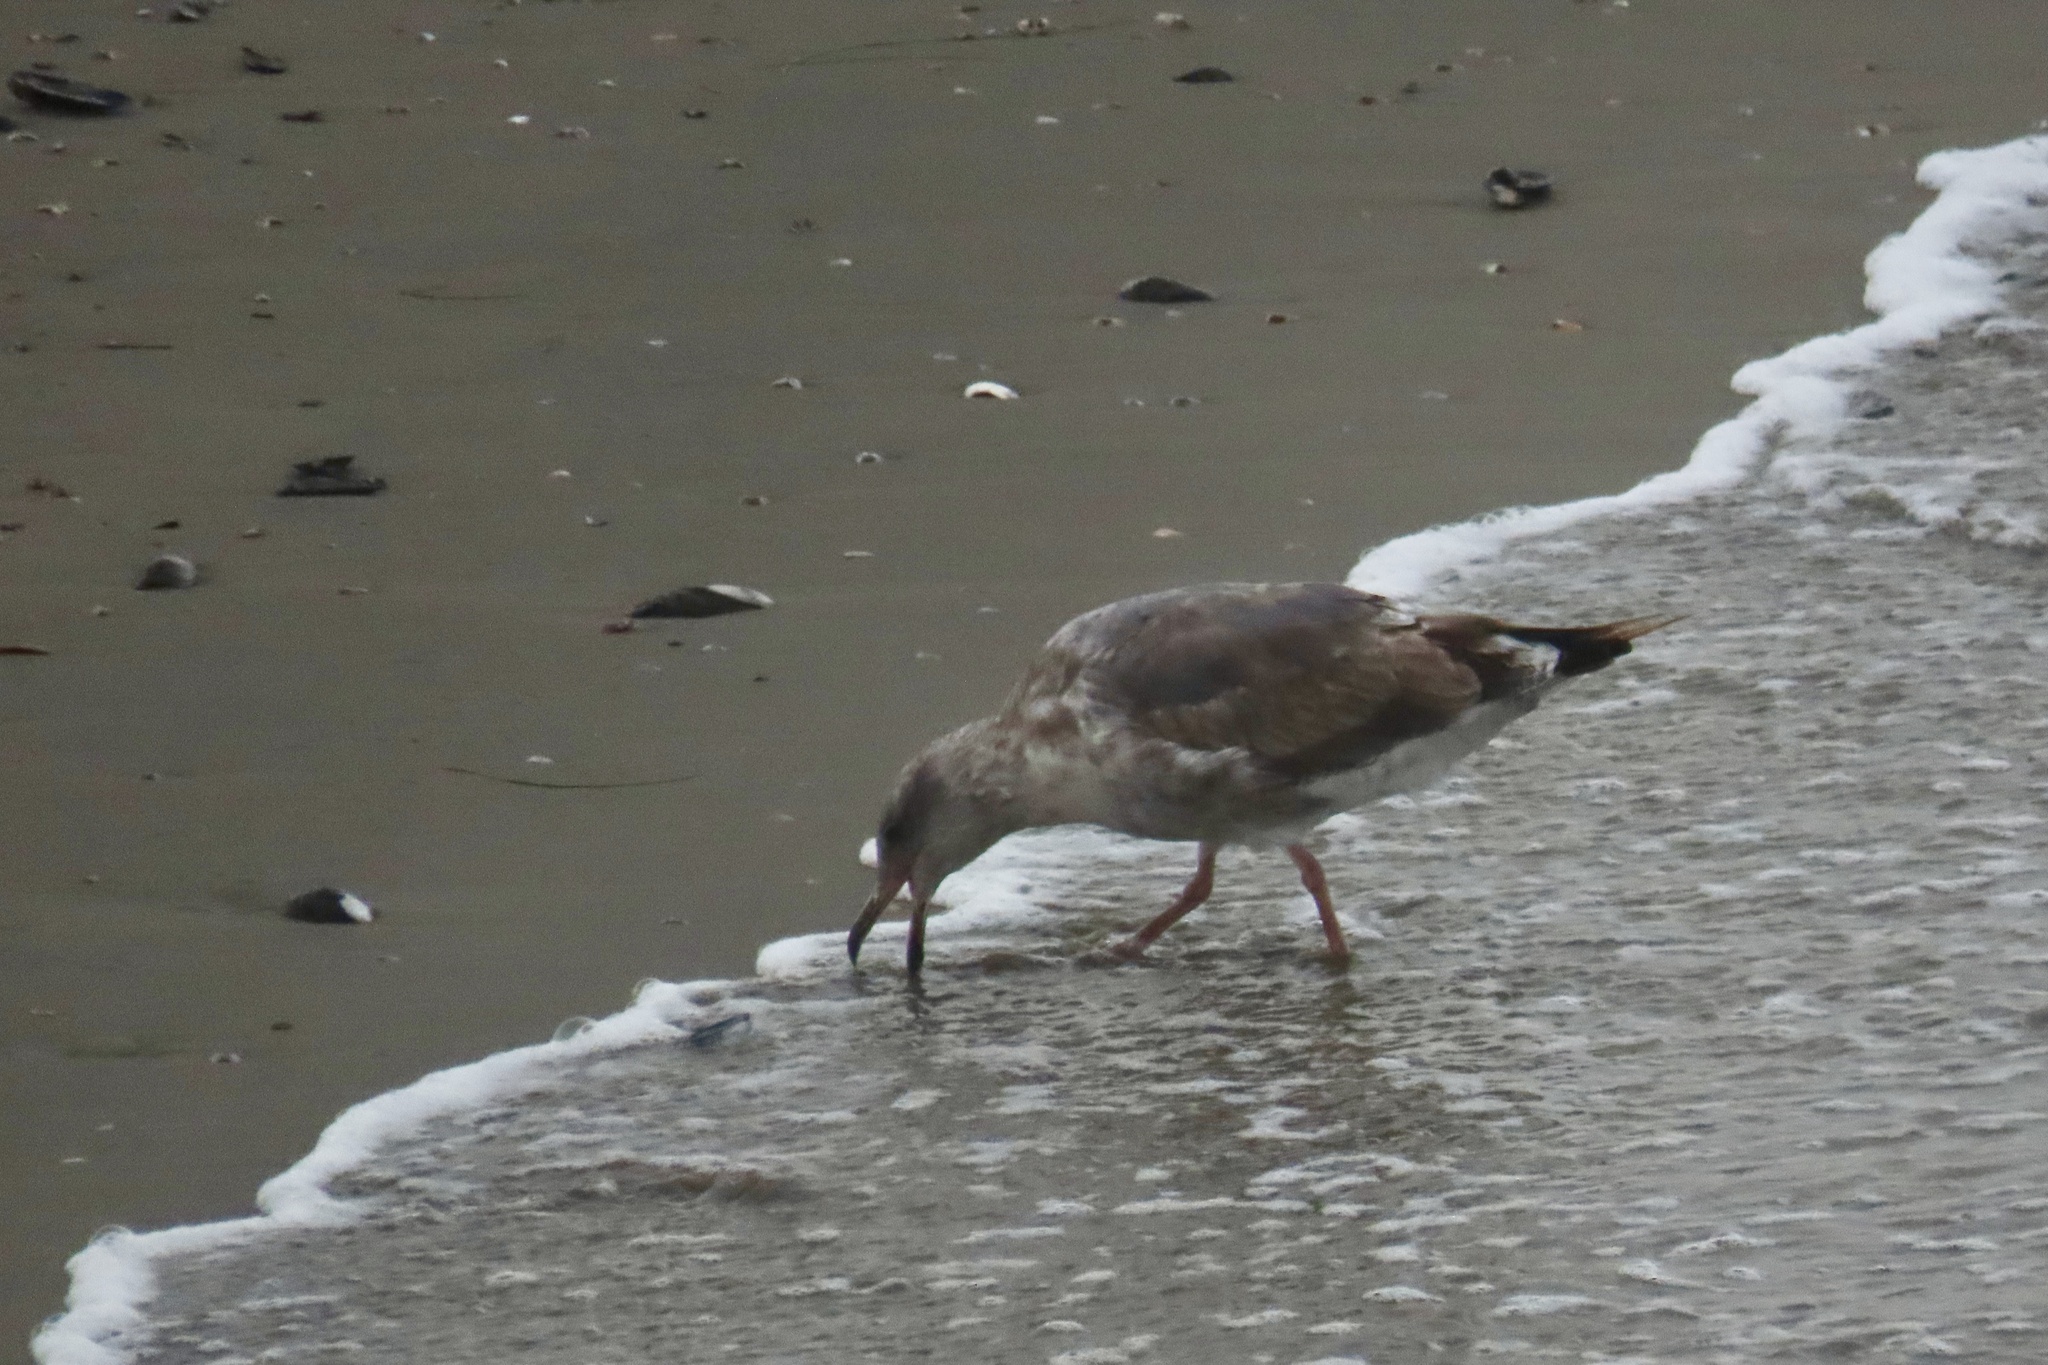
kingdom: Animalia
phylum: Chordata
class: Aves
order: Charadriiformes
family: Laridae
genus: Larus
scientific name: Larus occidentalis
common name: Western gull
